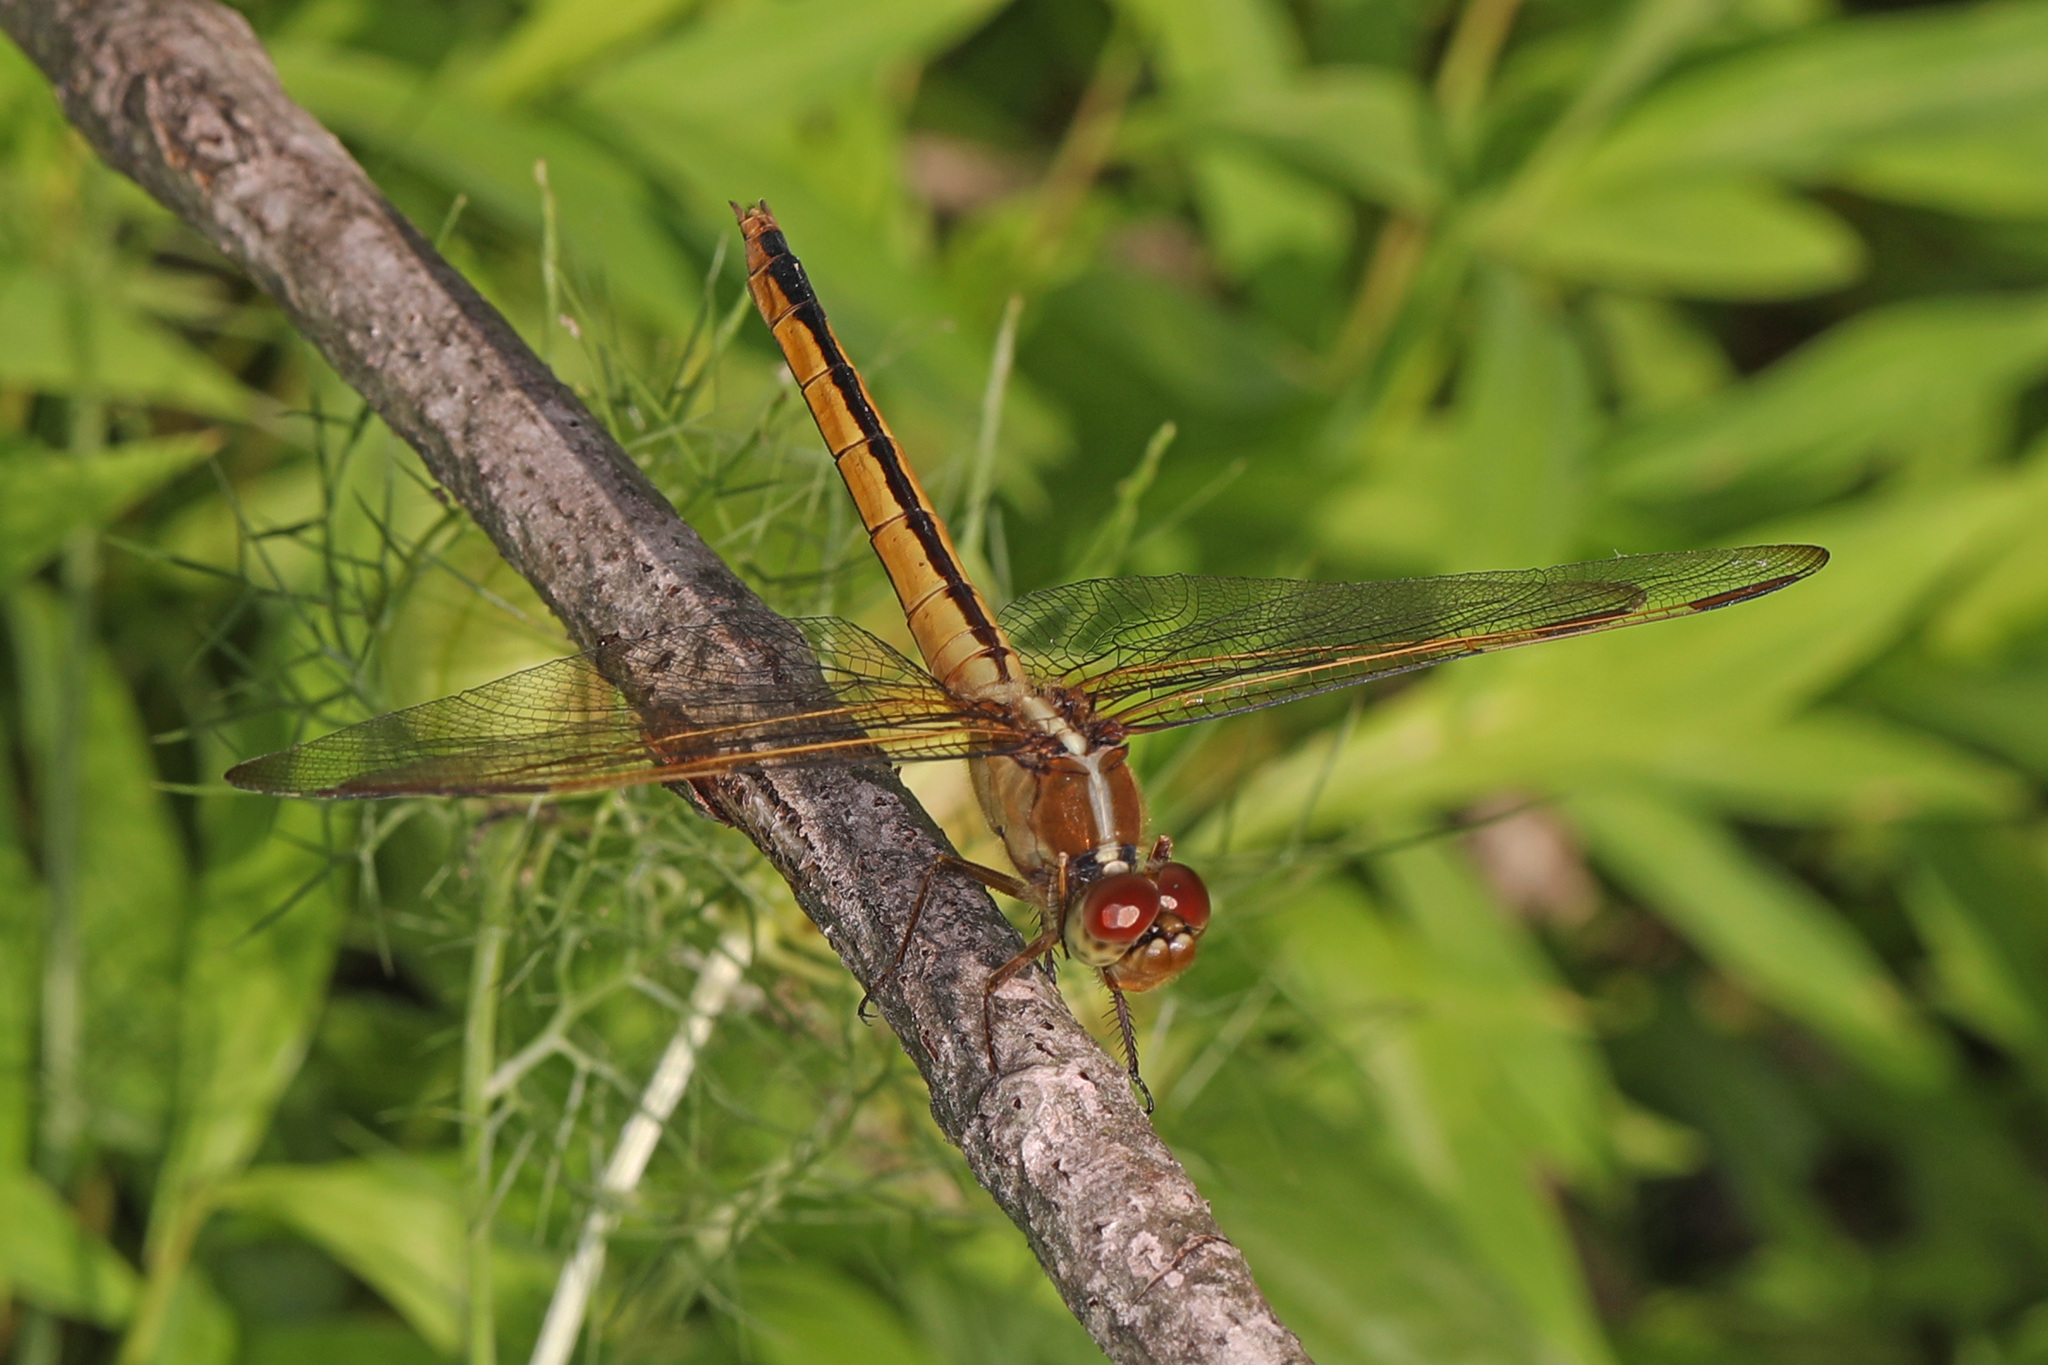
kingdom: Animalia
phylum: Arthropoda
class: Insecta
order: Odonata
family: Libellulidae
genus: Libellula
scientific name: Libellula needhami
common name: Needham's skimmer
